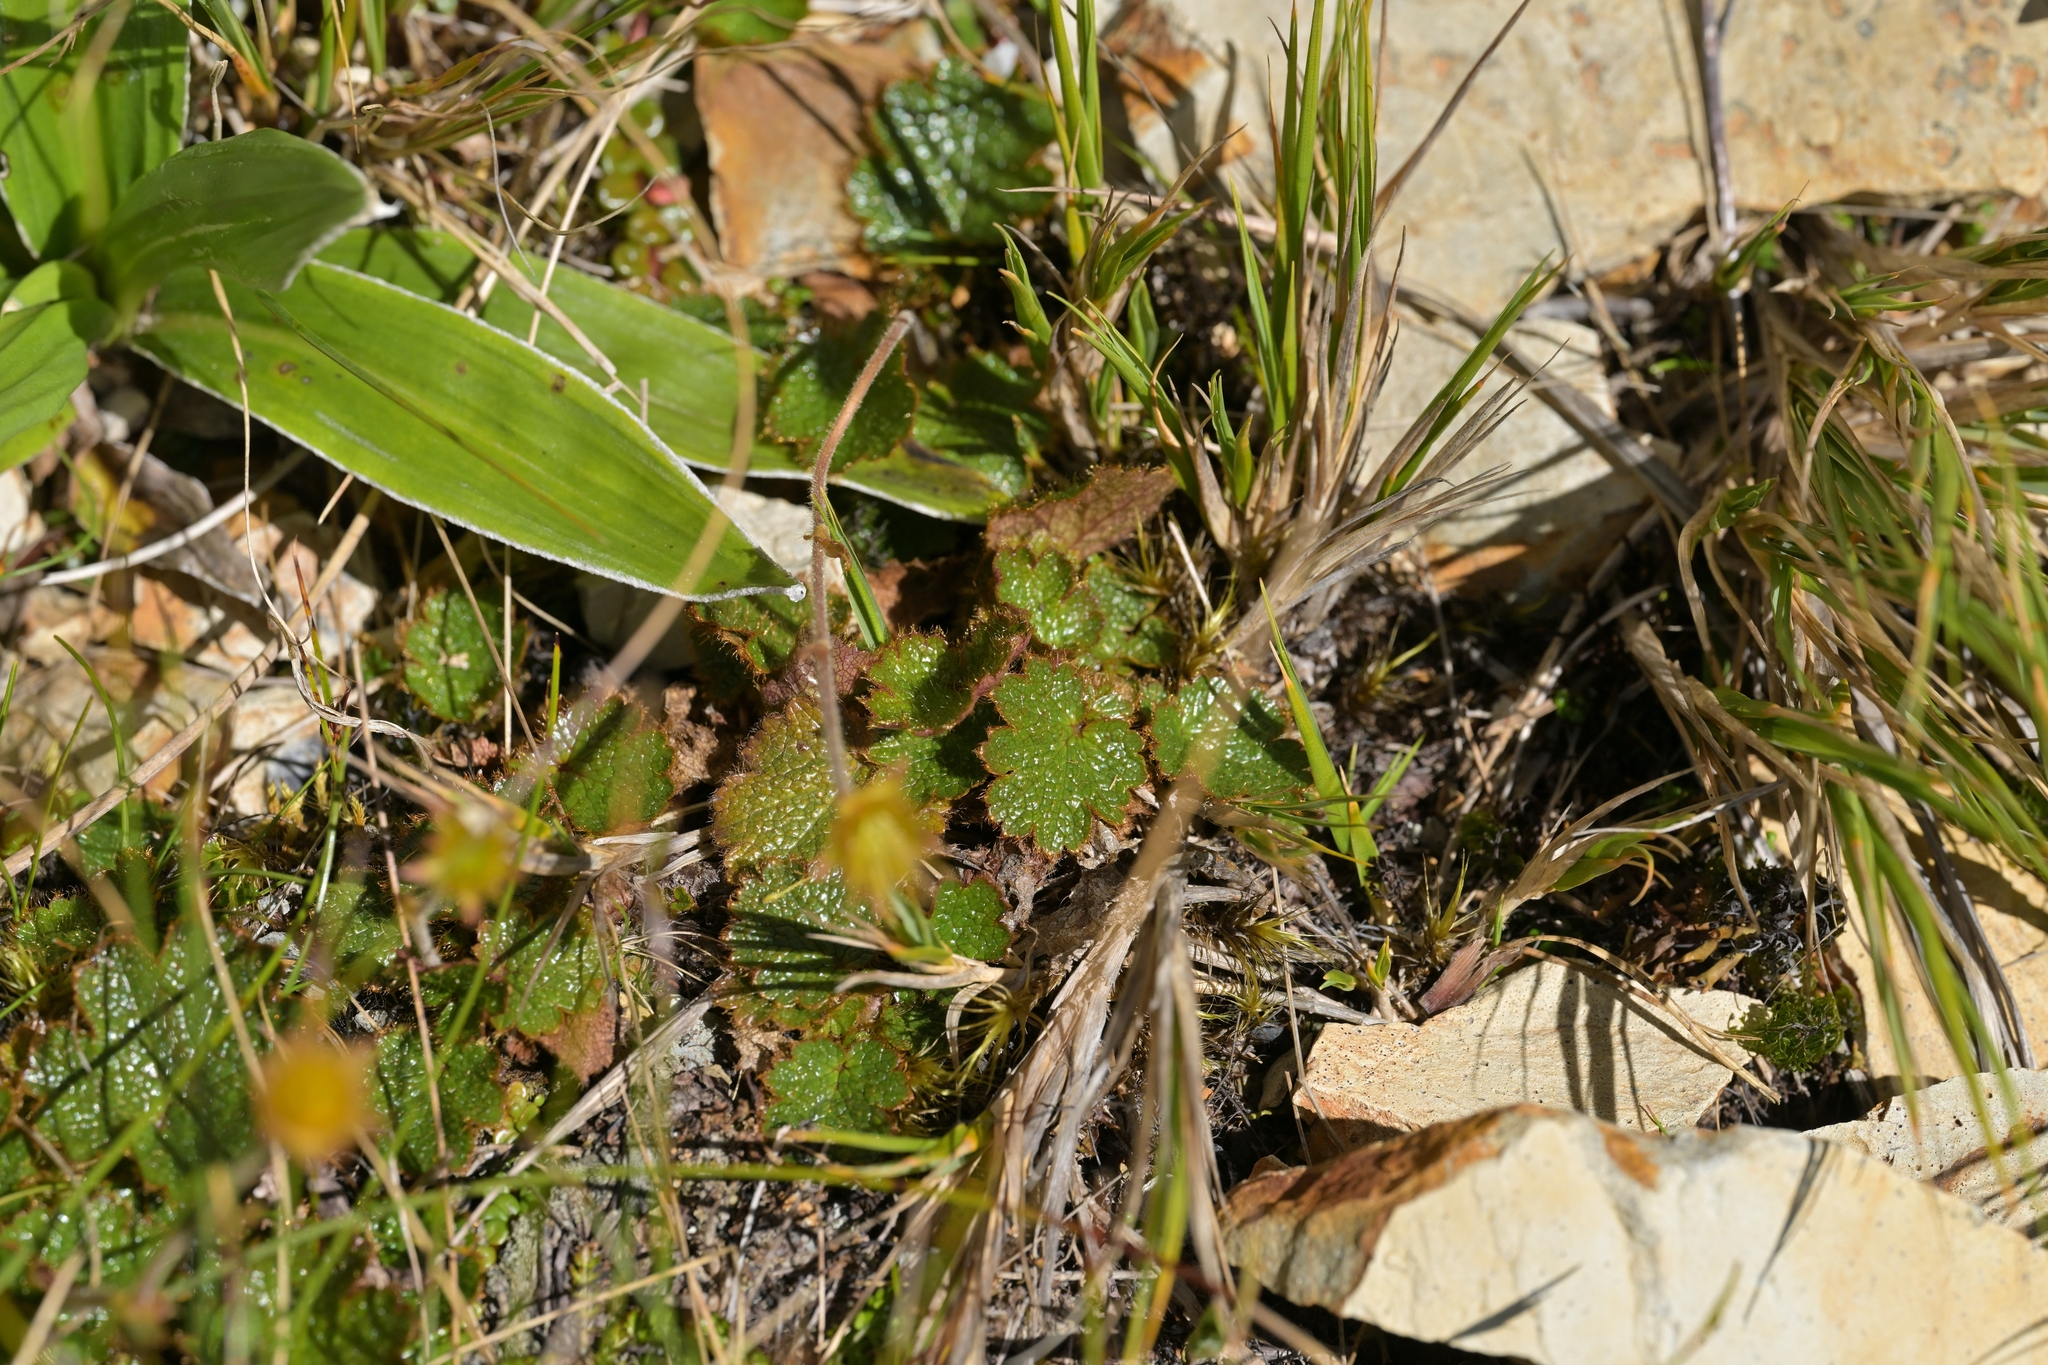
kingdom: Plantae
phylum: Tracheophyta
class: Magnoliopsida
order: Rosales
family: Rosaceae
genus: Geum
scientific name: Geum uniflorum
